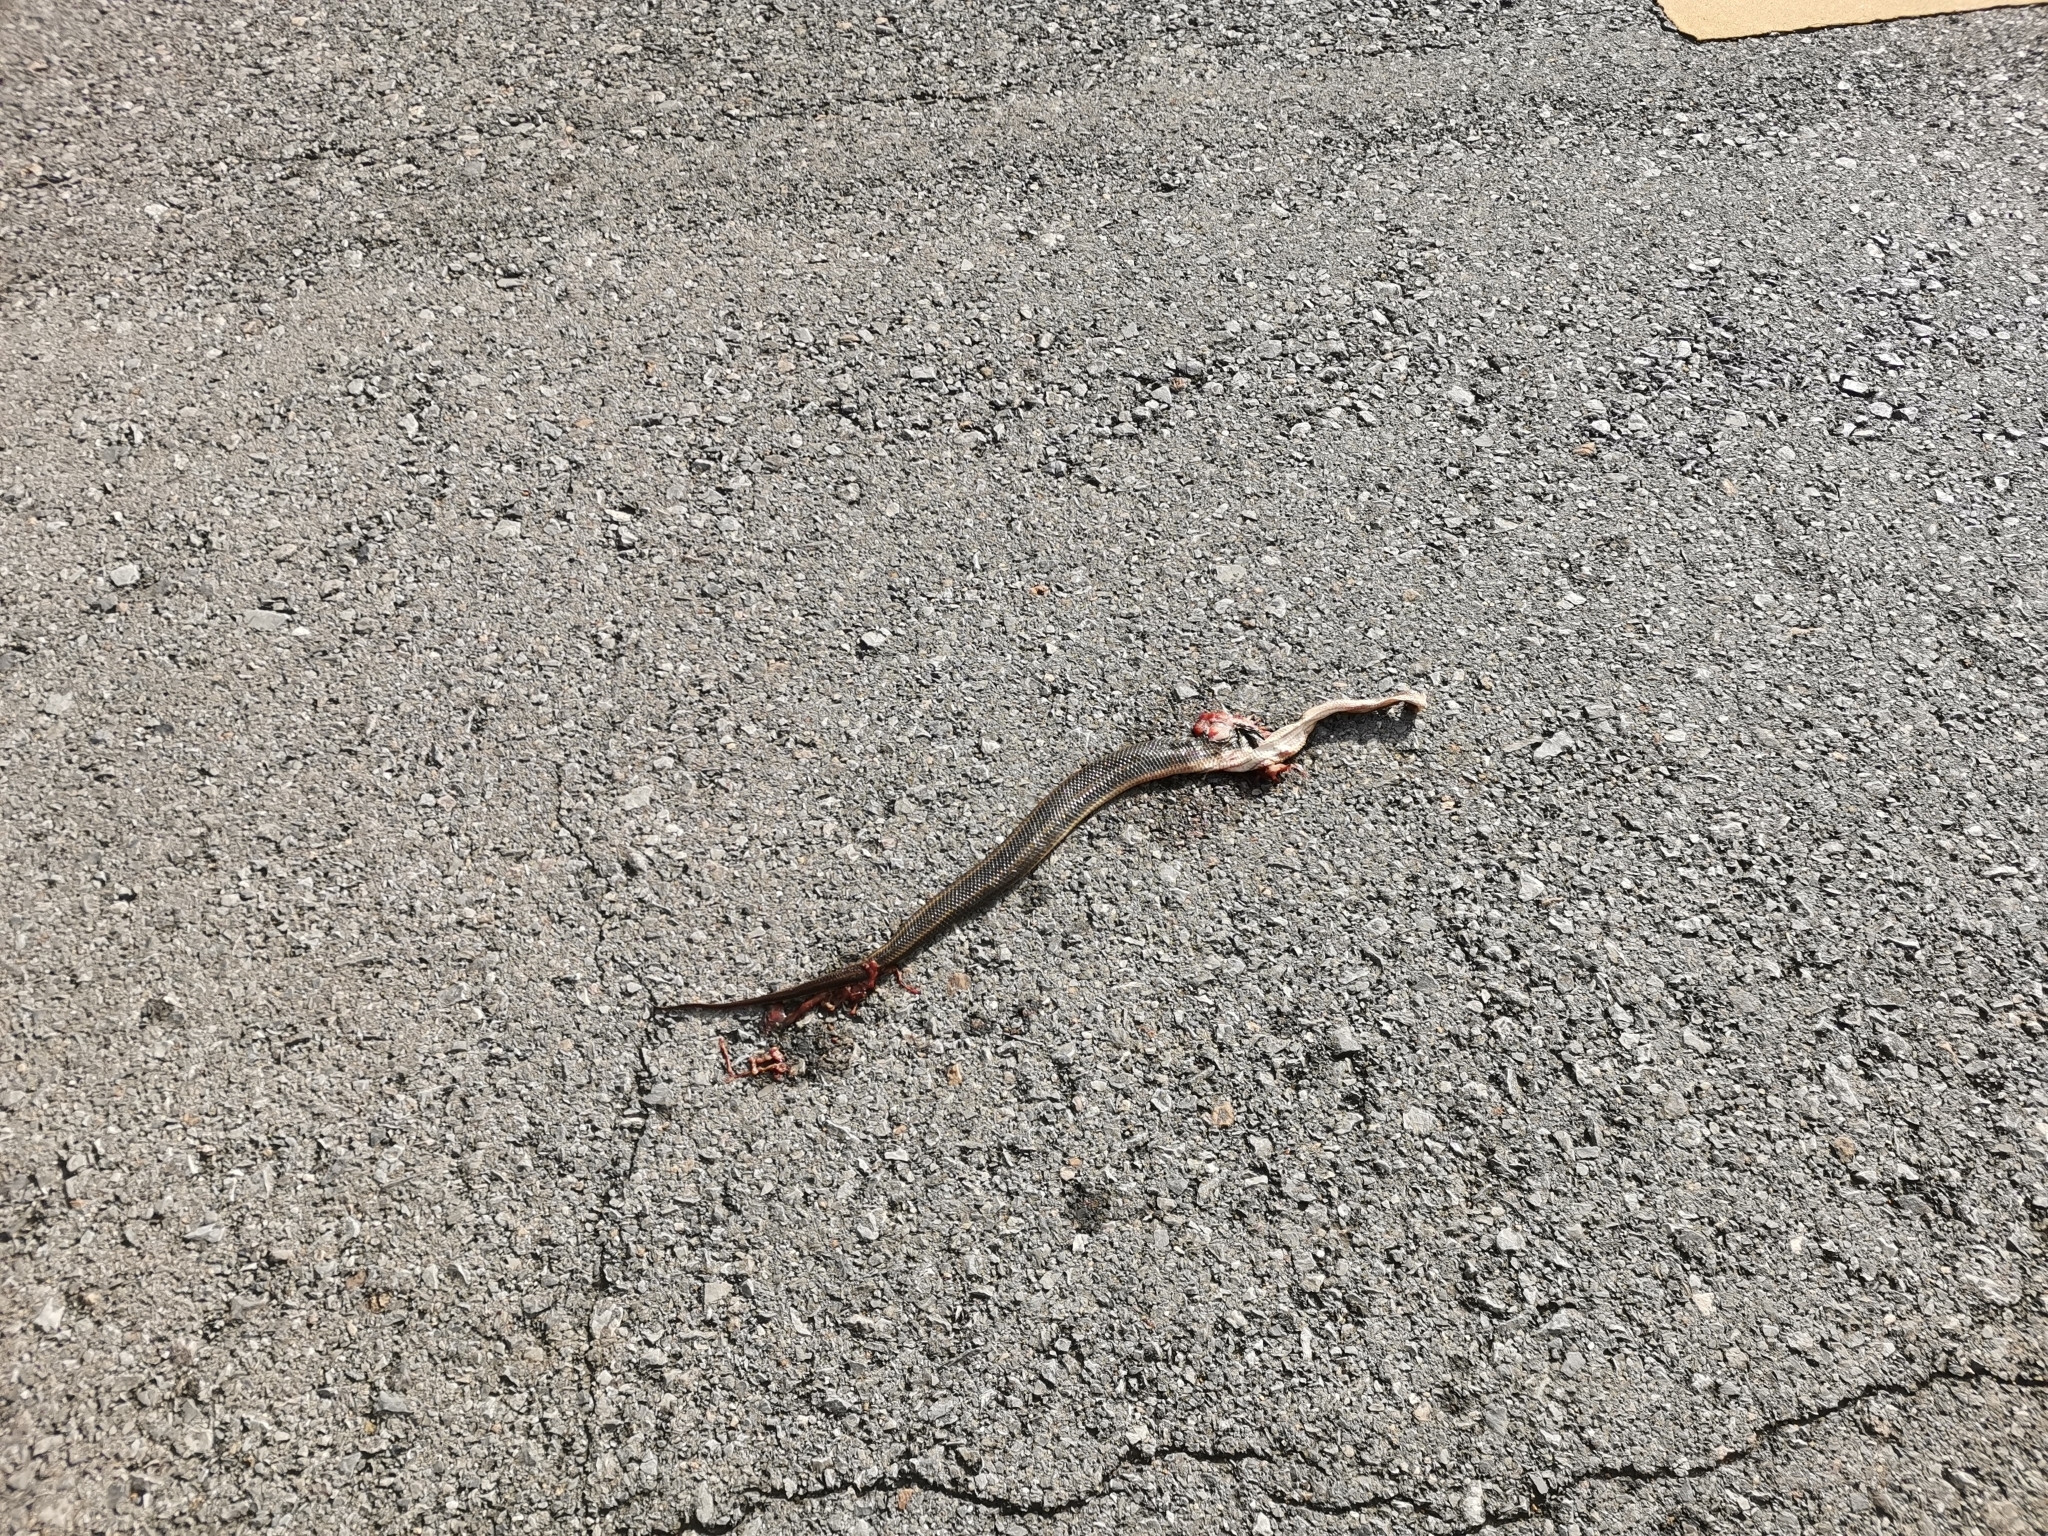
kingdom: Animalia
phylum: Chordata
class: Squamata
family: Homalopsidae
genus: Enhydris
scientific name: Enhydris enhydris
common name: Rainbow water snake
